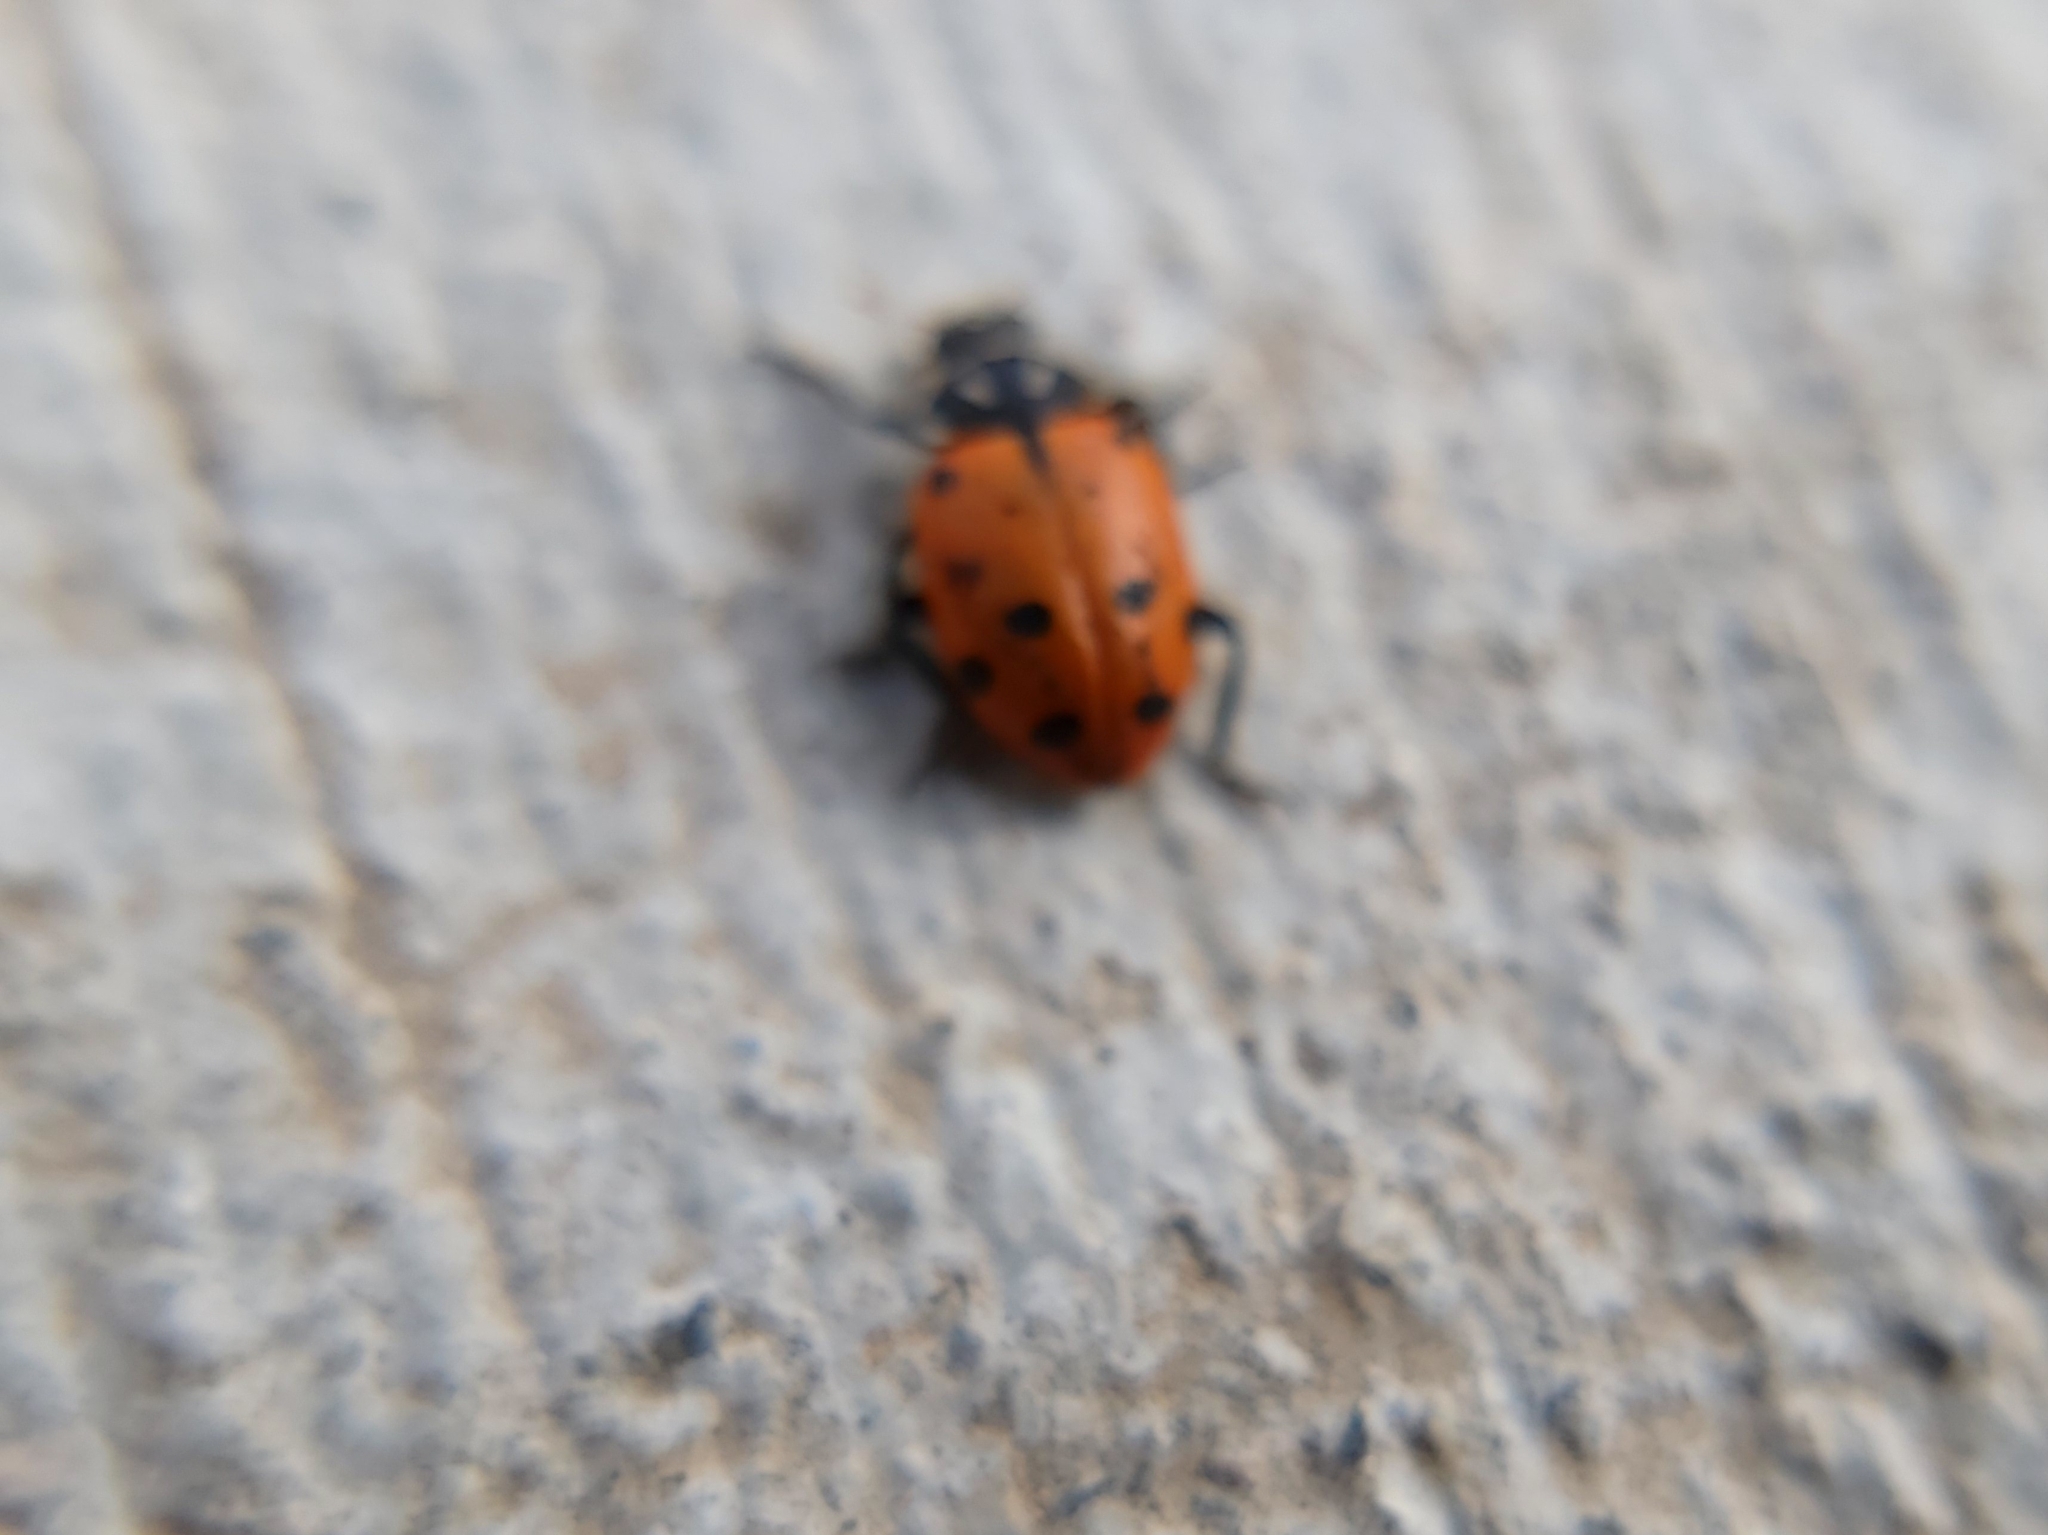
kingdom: Animalia
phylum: Arthropoda
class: Insecta
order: Coleoptera
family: Coccinellidae
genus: Hippodamia
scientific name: Hippodamia convergens
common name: Convergent lady beetle
